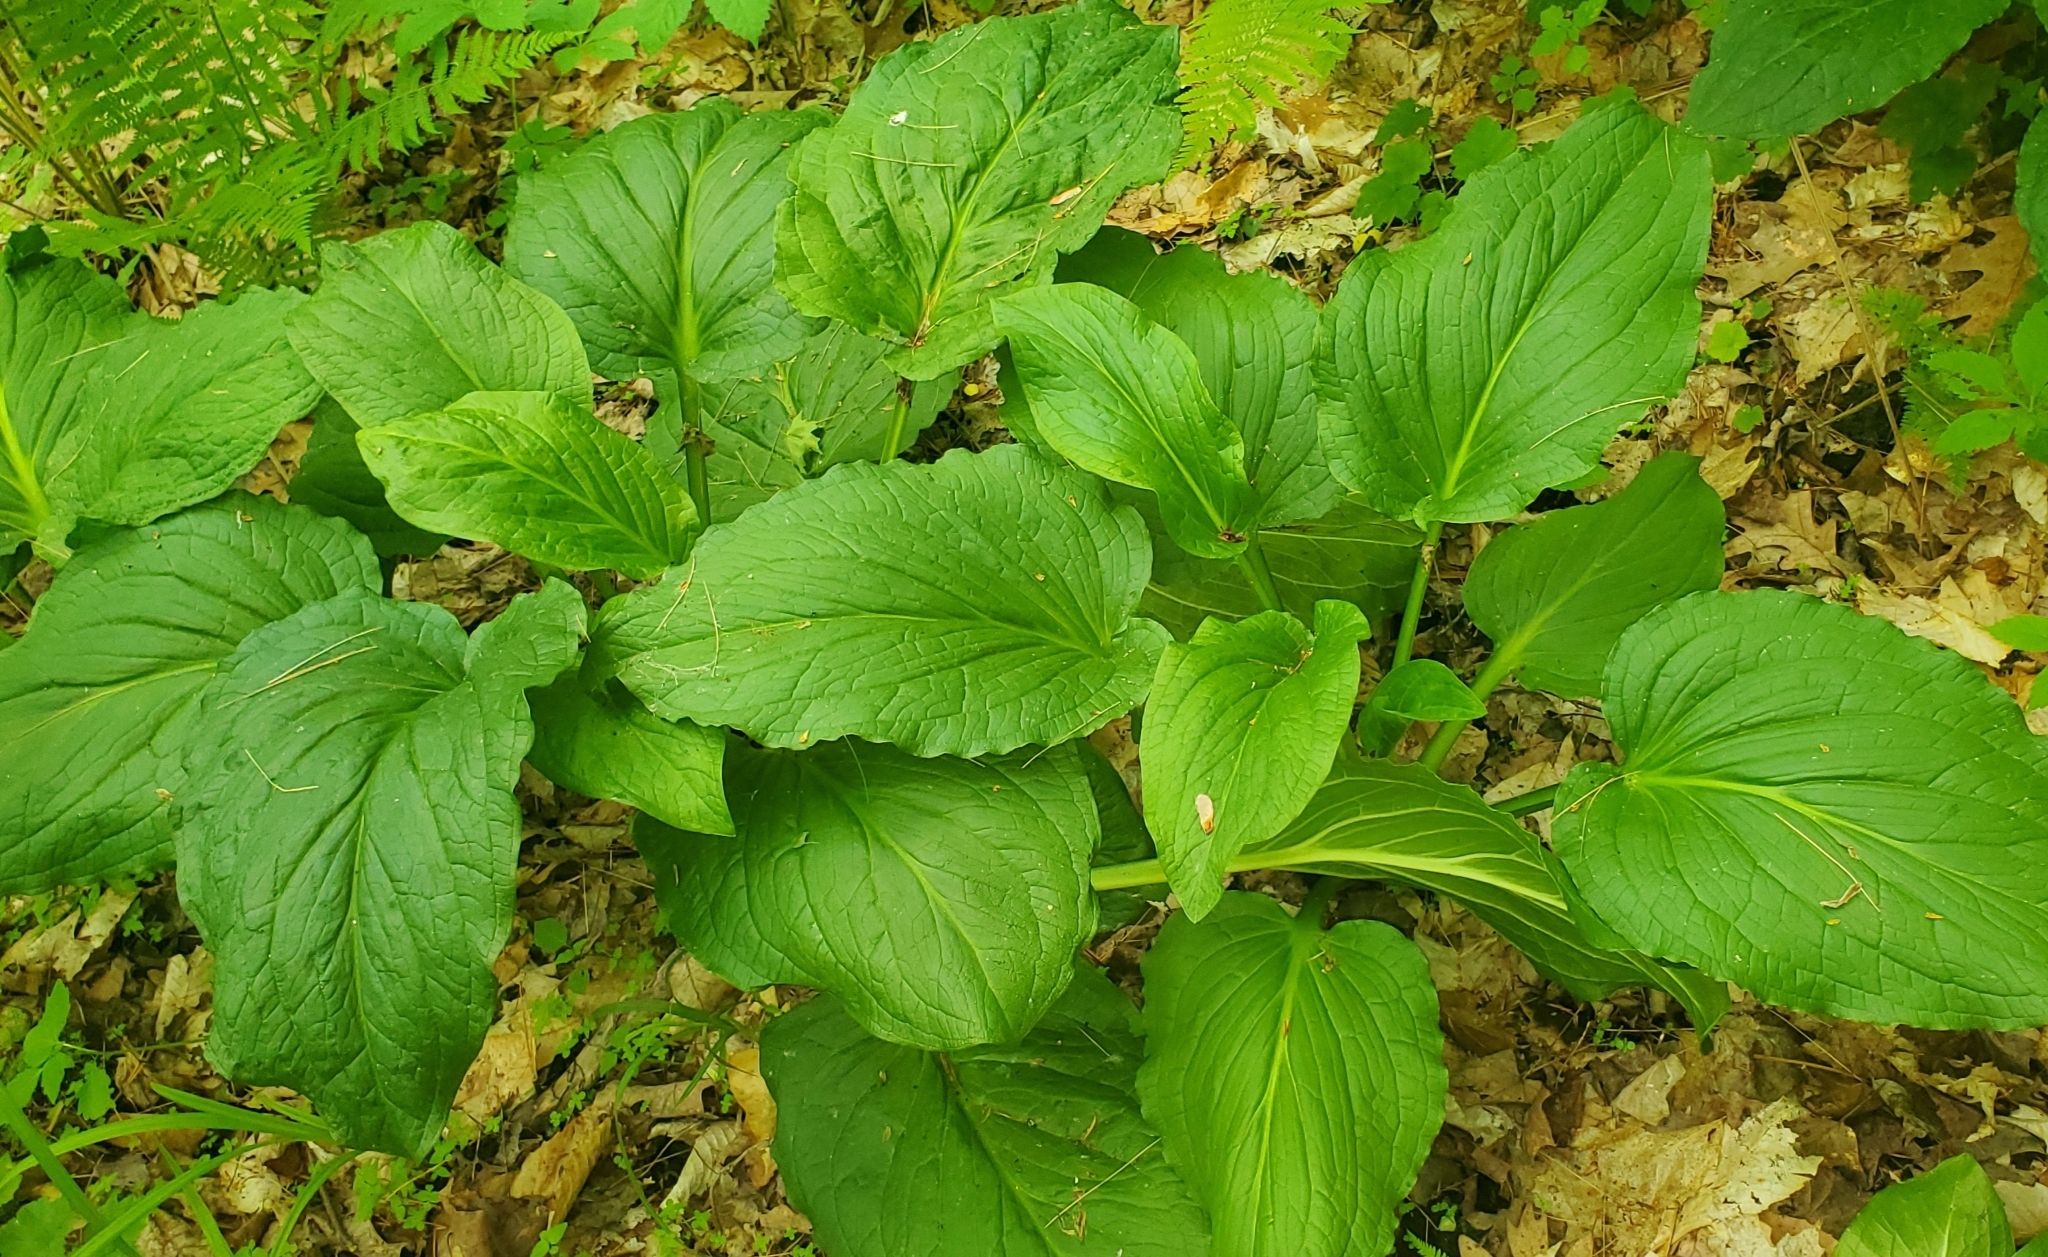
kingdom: Plantae
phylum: Tracheophyta
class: Liliopsida
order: Alismatales
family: Araceae
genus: Symplocarpus
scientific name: Symplocarpus foetidus
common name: Eastern skunk cabbage
